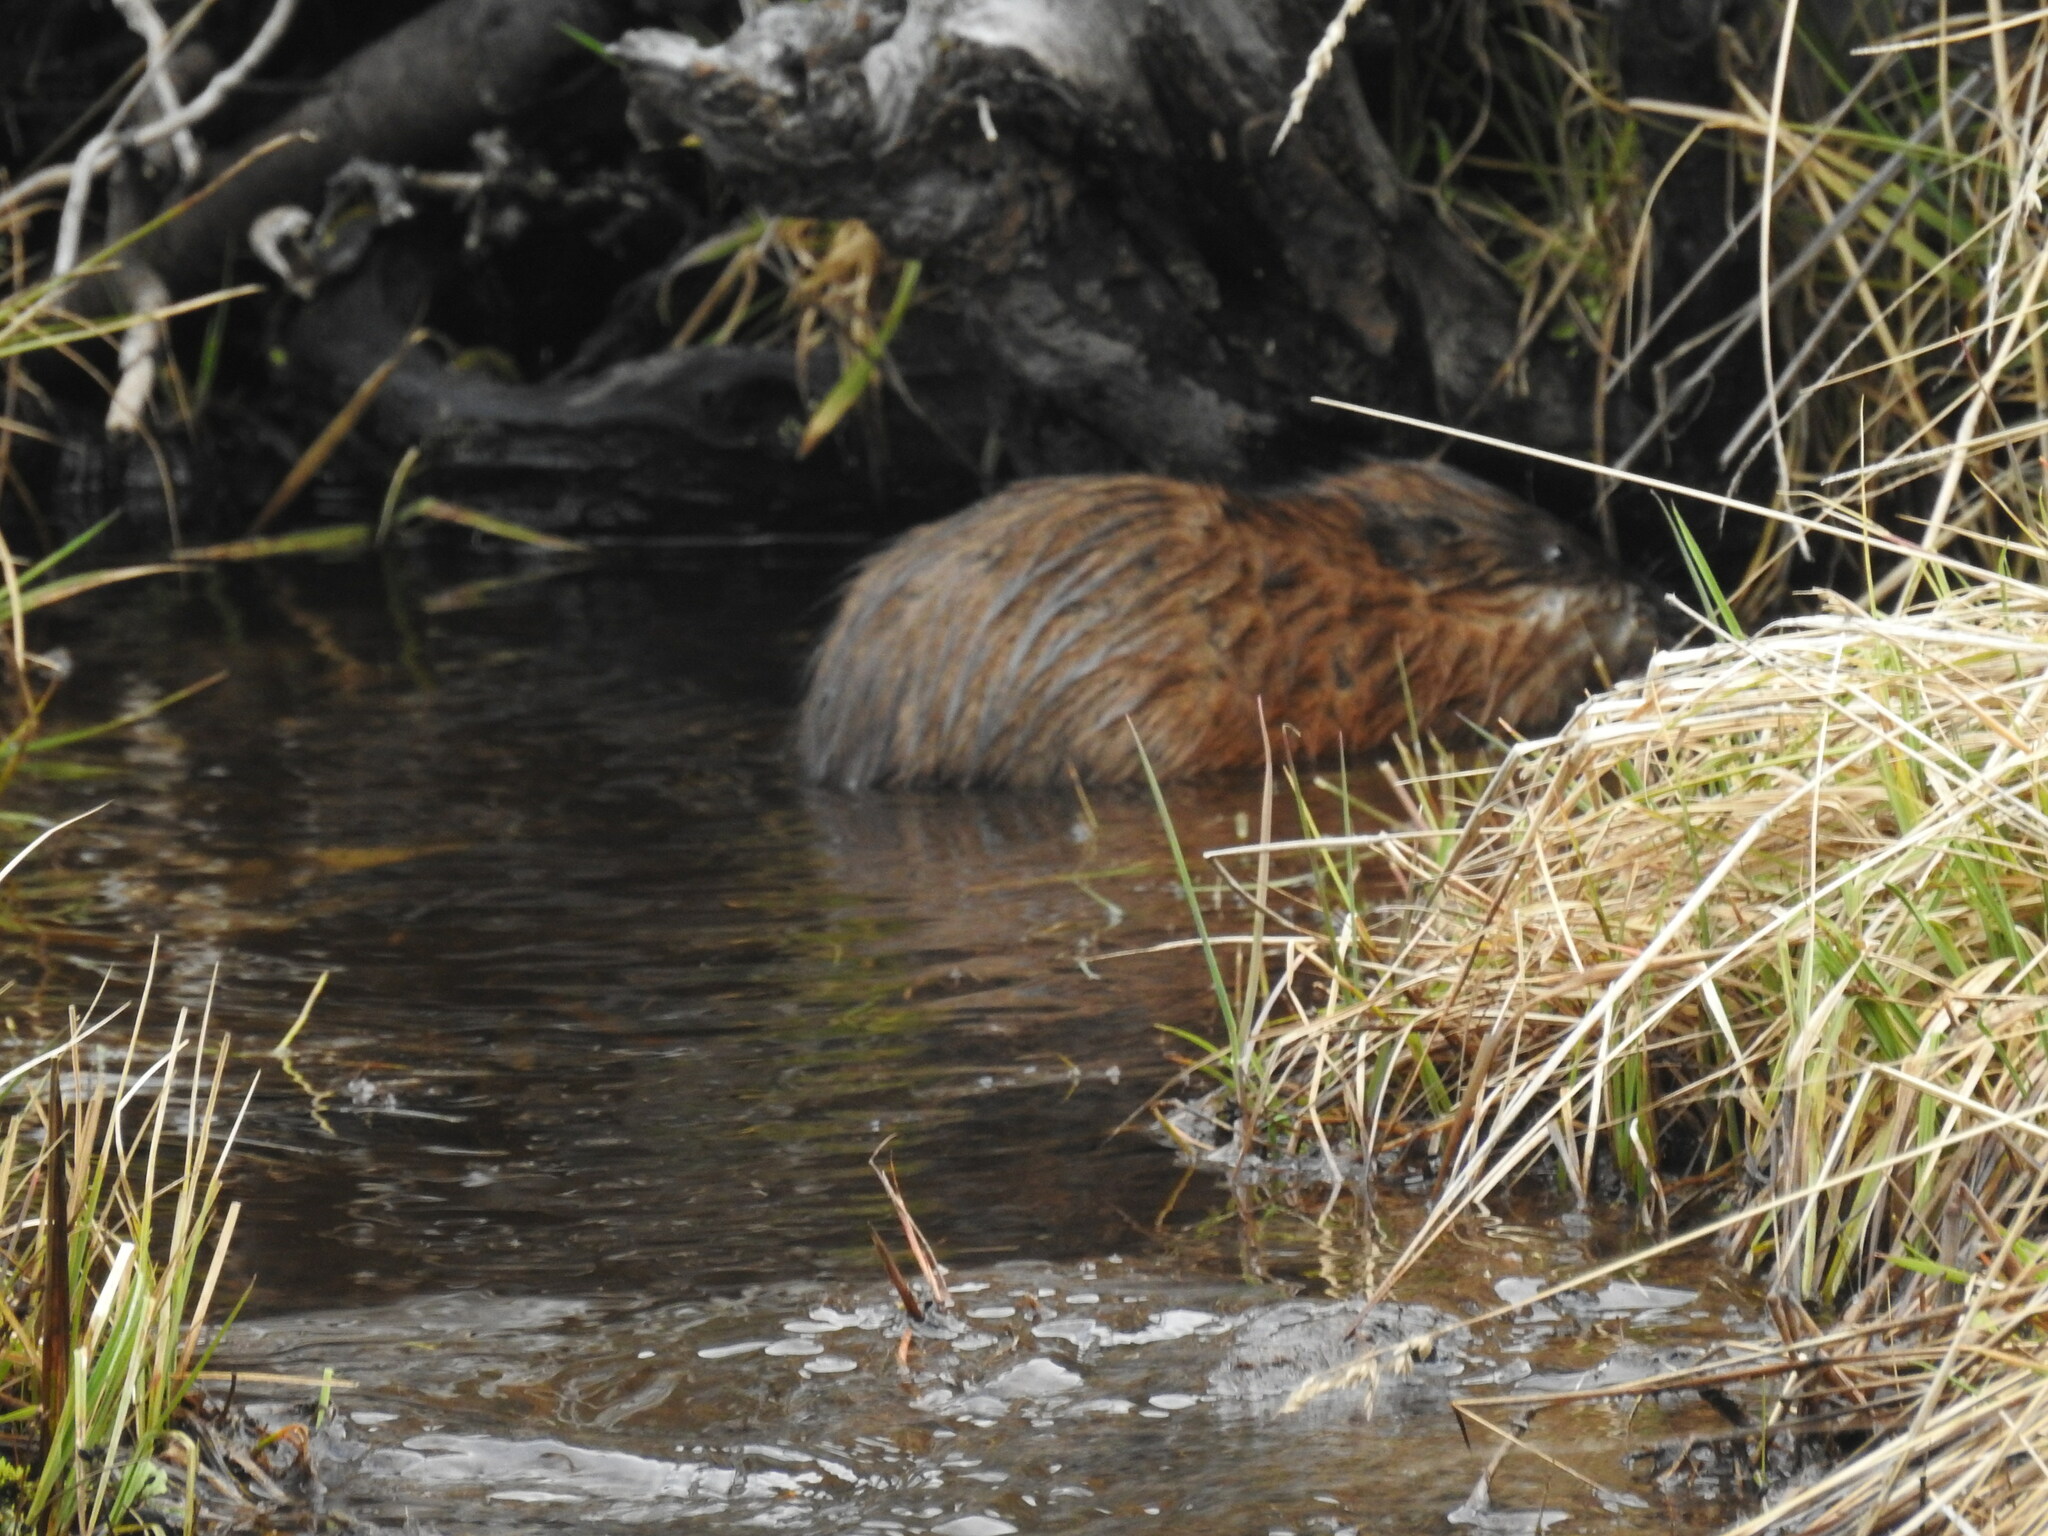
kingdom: Animalia
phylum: Chordata
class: Mammalia
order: Rodentia
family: Cricetidae
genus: Ondatra
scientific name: Ondatra zibethicus
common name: Muskrat
